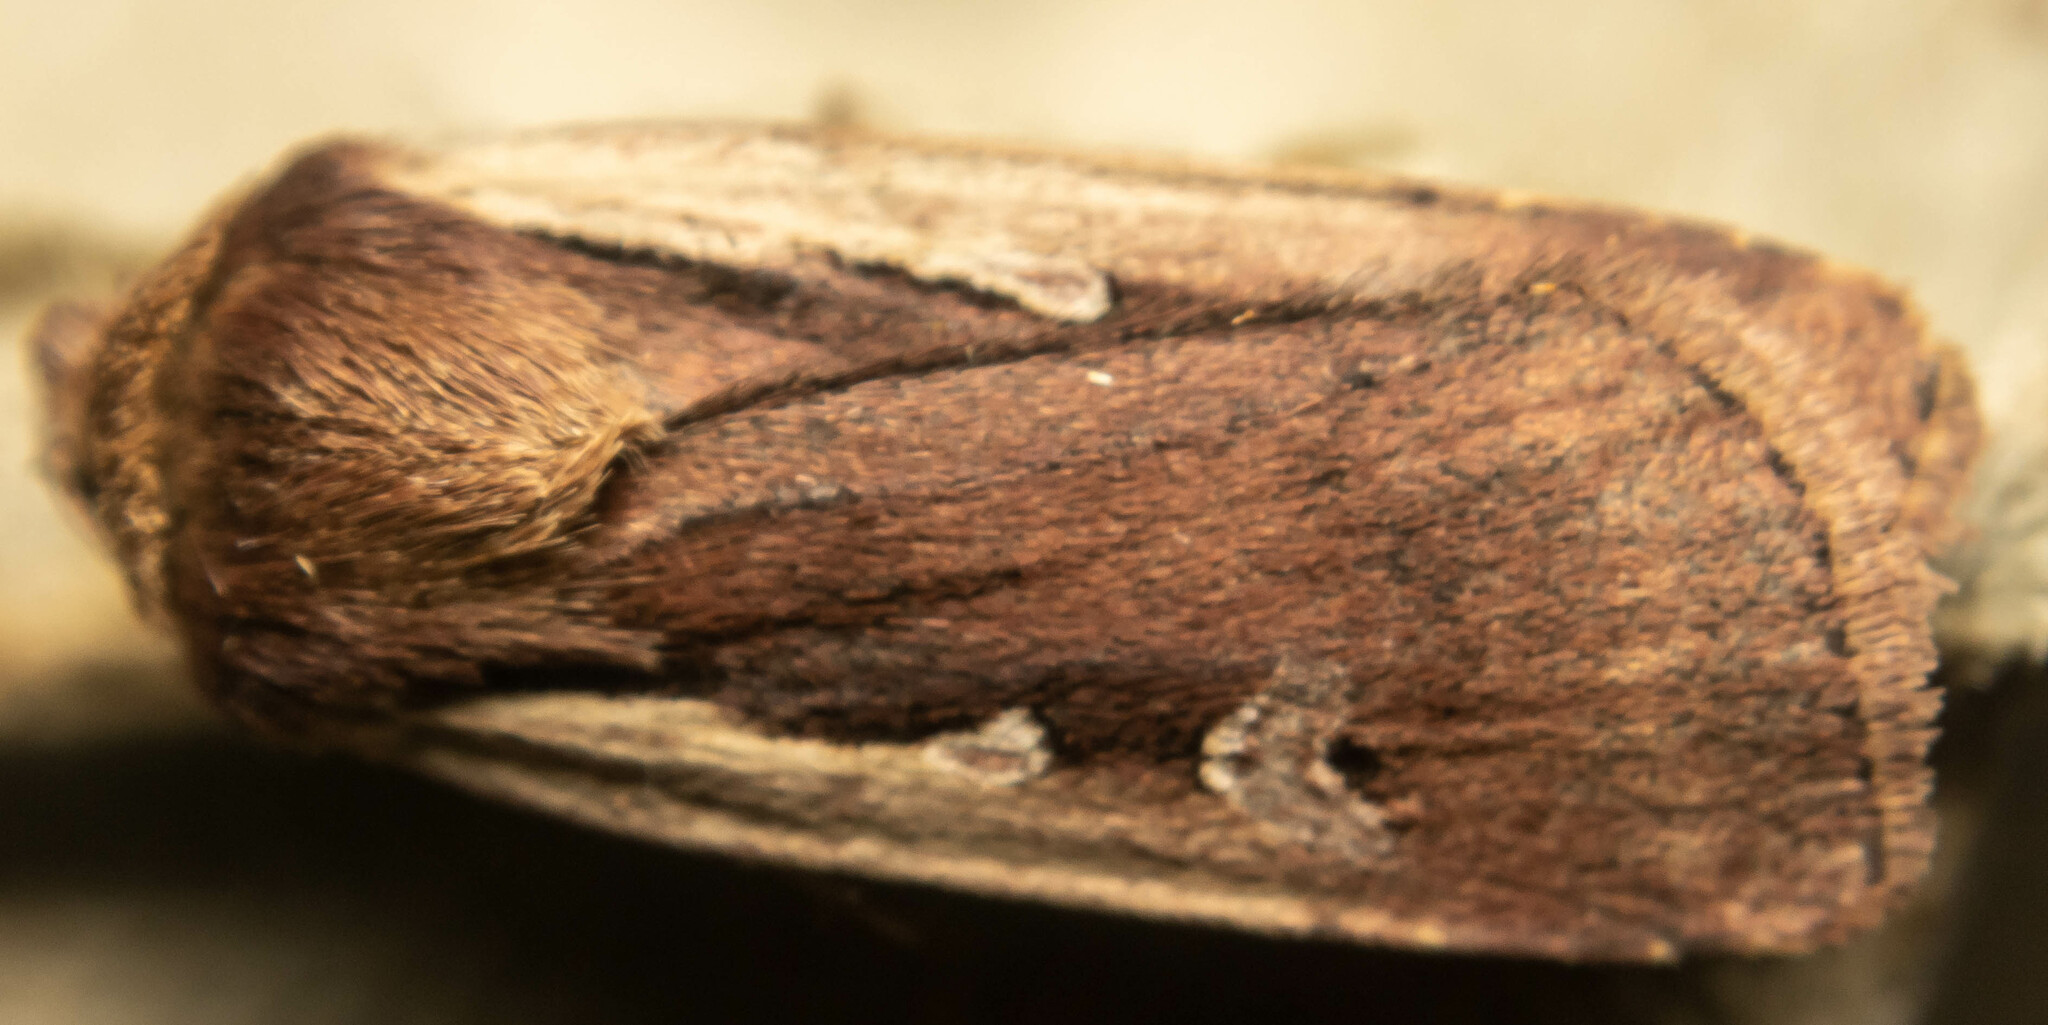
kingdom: Animalia
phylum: Arthropoda
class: Insecta
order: Lepidoptera
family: Noctuidae
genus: Ochropleura
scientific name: Ochropleura plecta
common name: Flame shoulder
